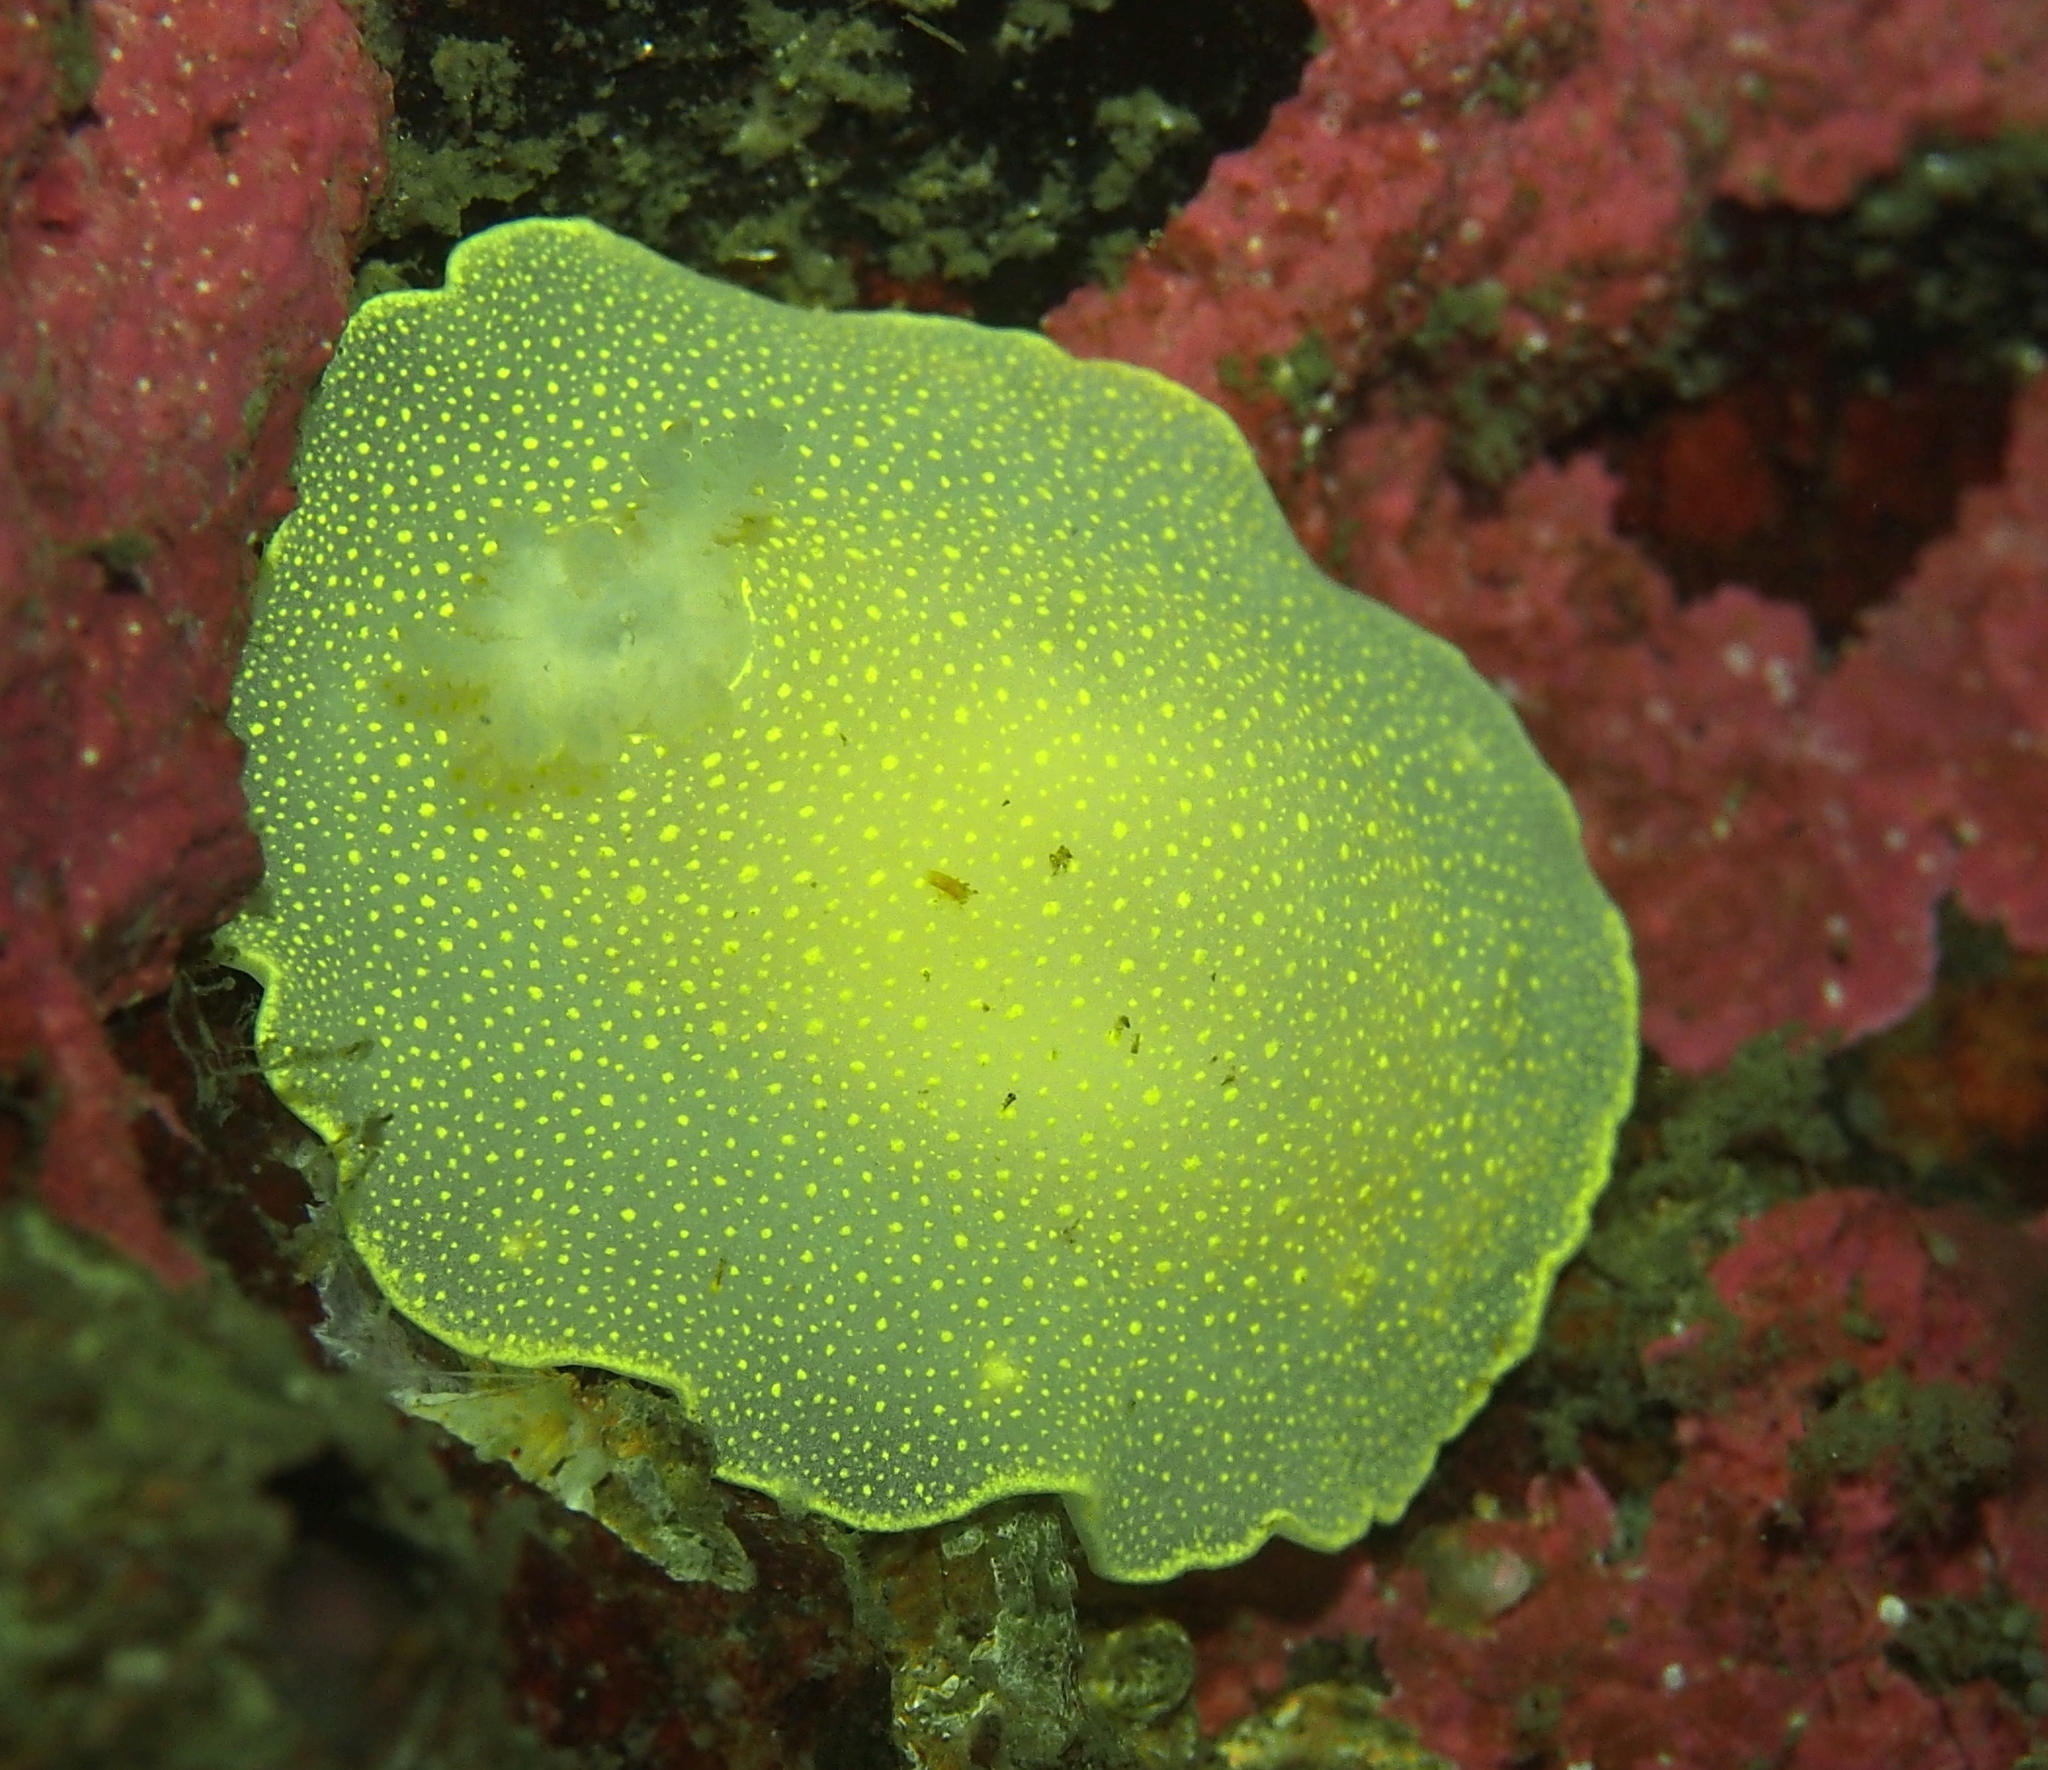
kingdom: Animalia
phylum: Mollusca
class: Gastropoda
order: Nudibranchia
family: Cadlinidae
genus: Cadlina
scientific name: Cadlina laevis
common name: White atlantic cadlina
